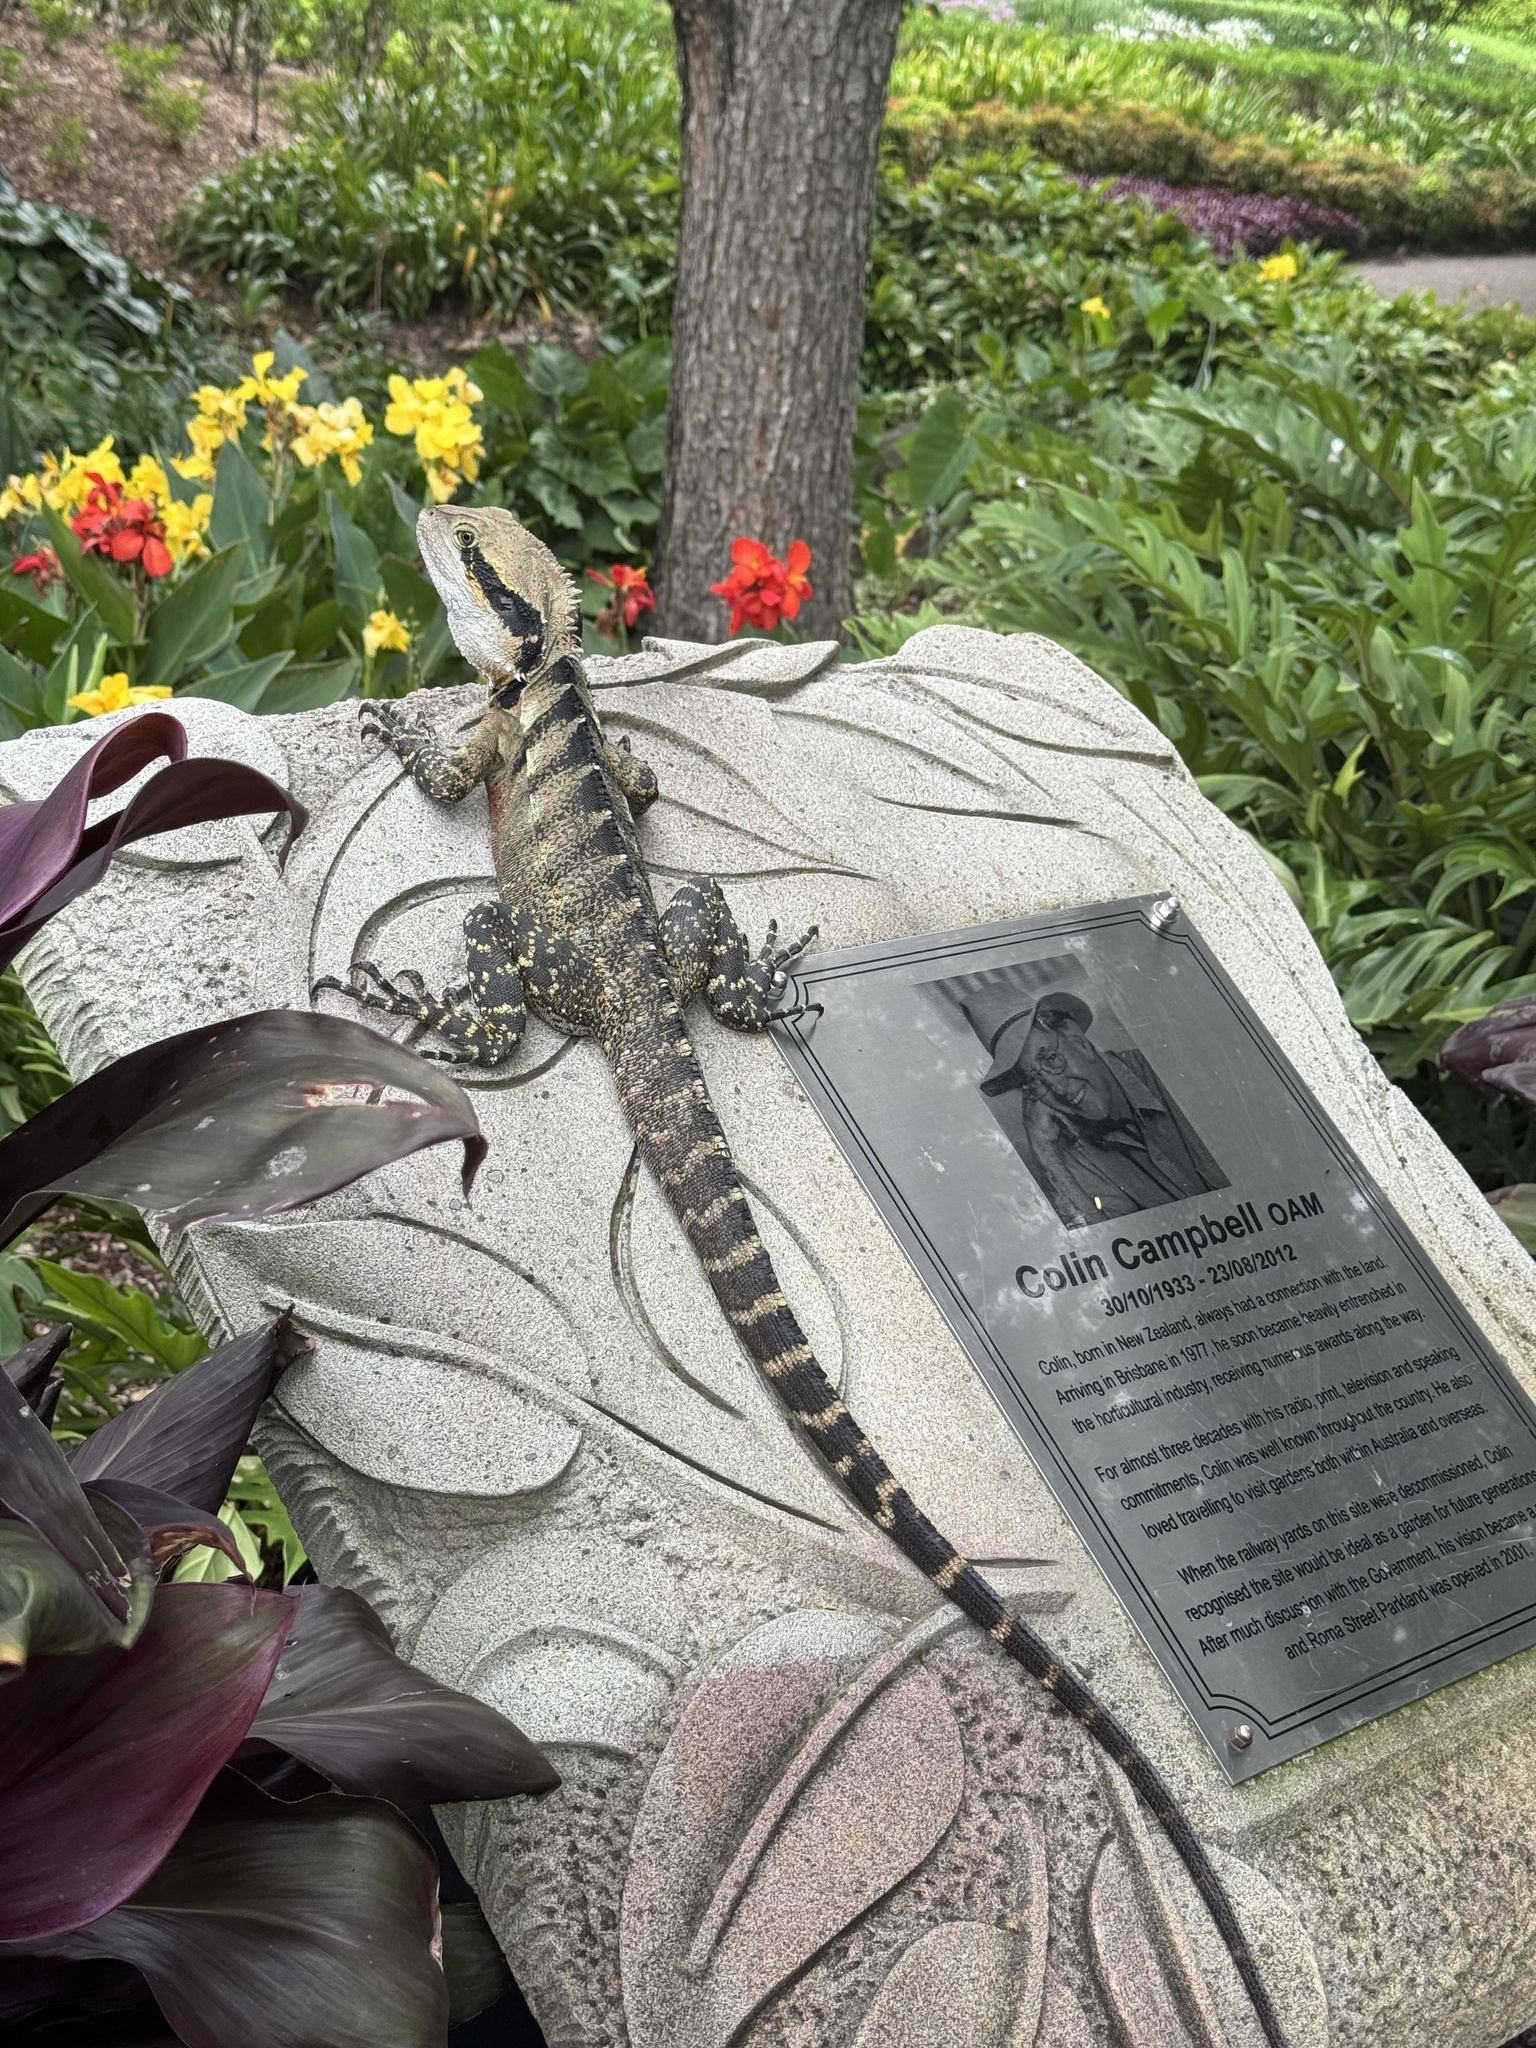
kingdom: Animalia
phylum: Chordata
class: Squamata
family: Agamidae
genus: Intellagama
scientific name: Intellagama lesueurii
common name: Eastern water dragon
